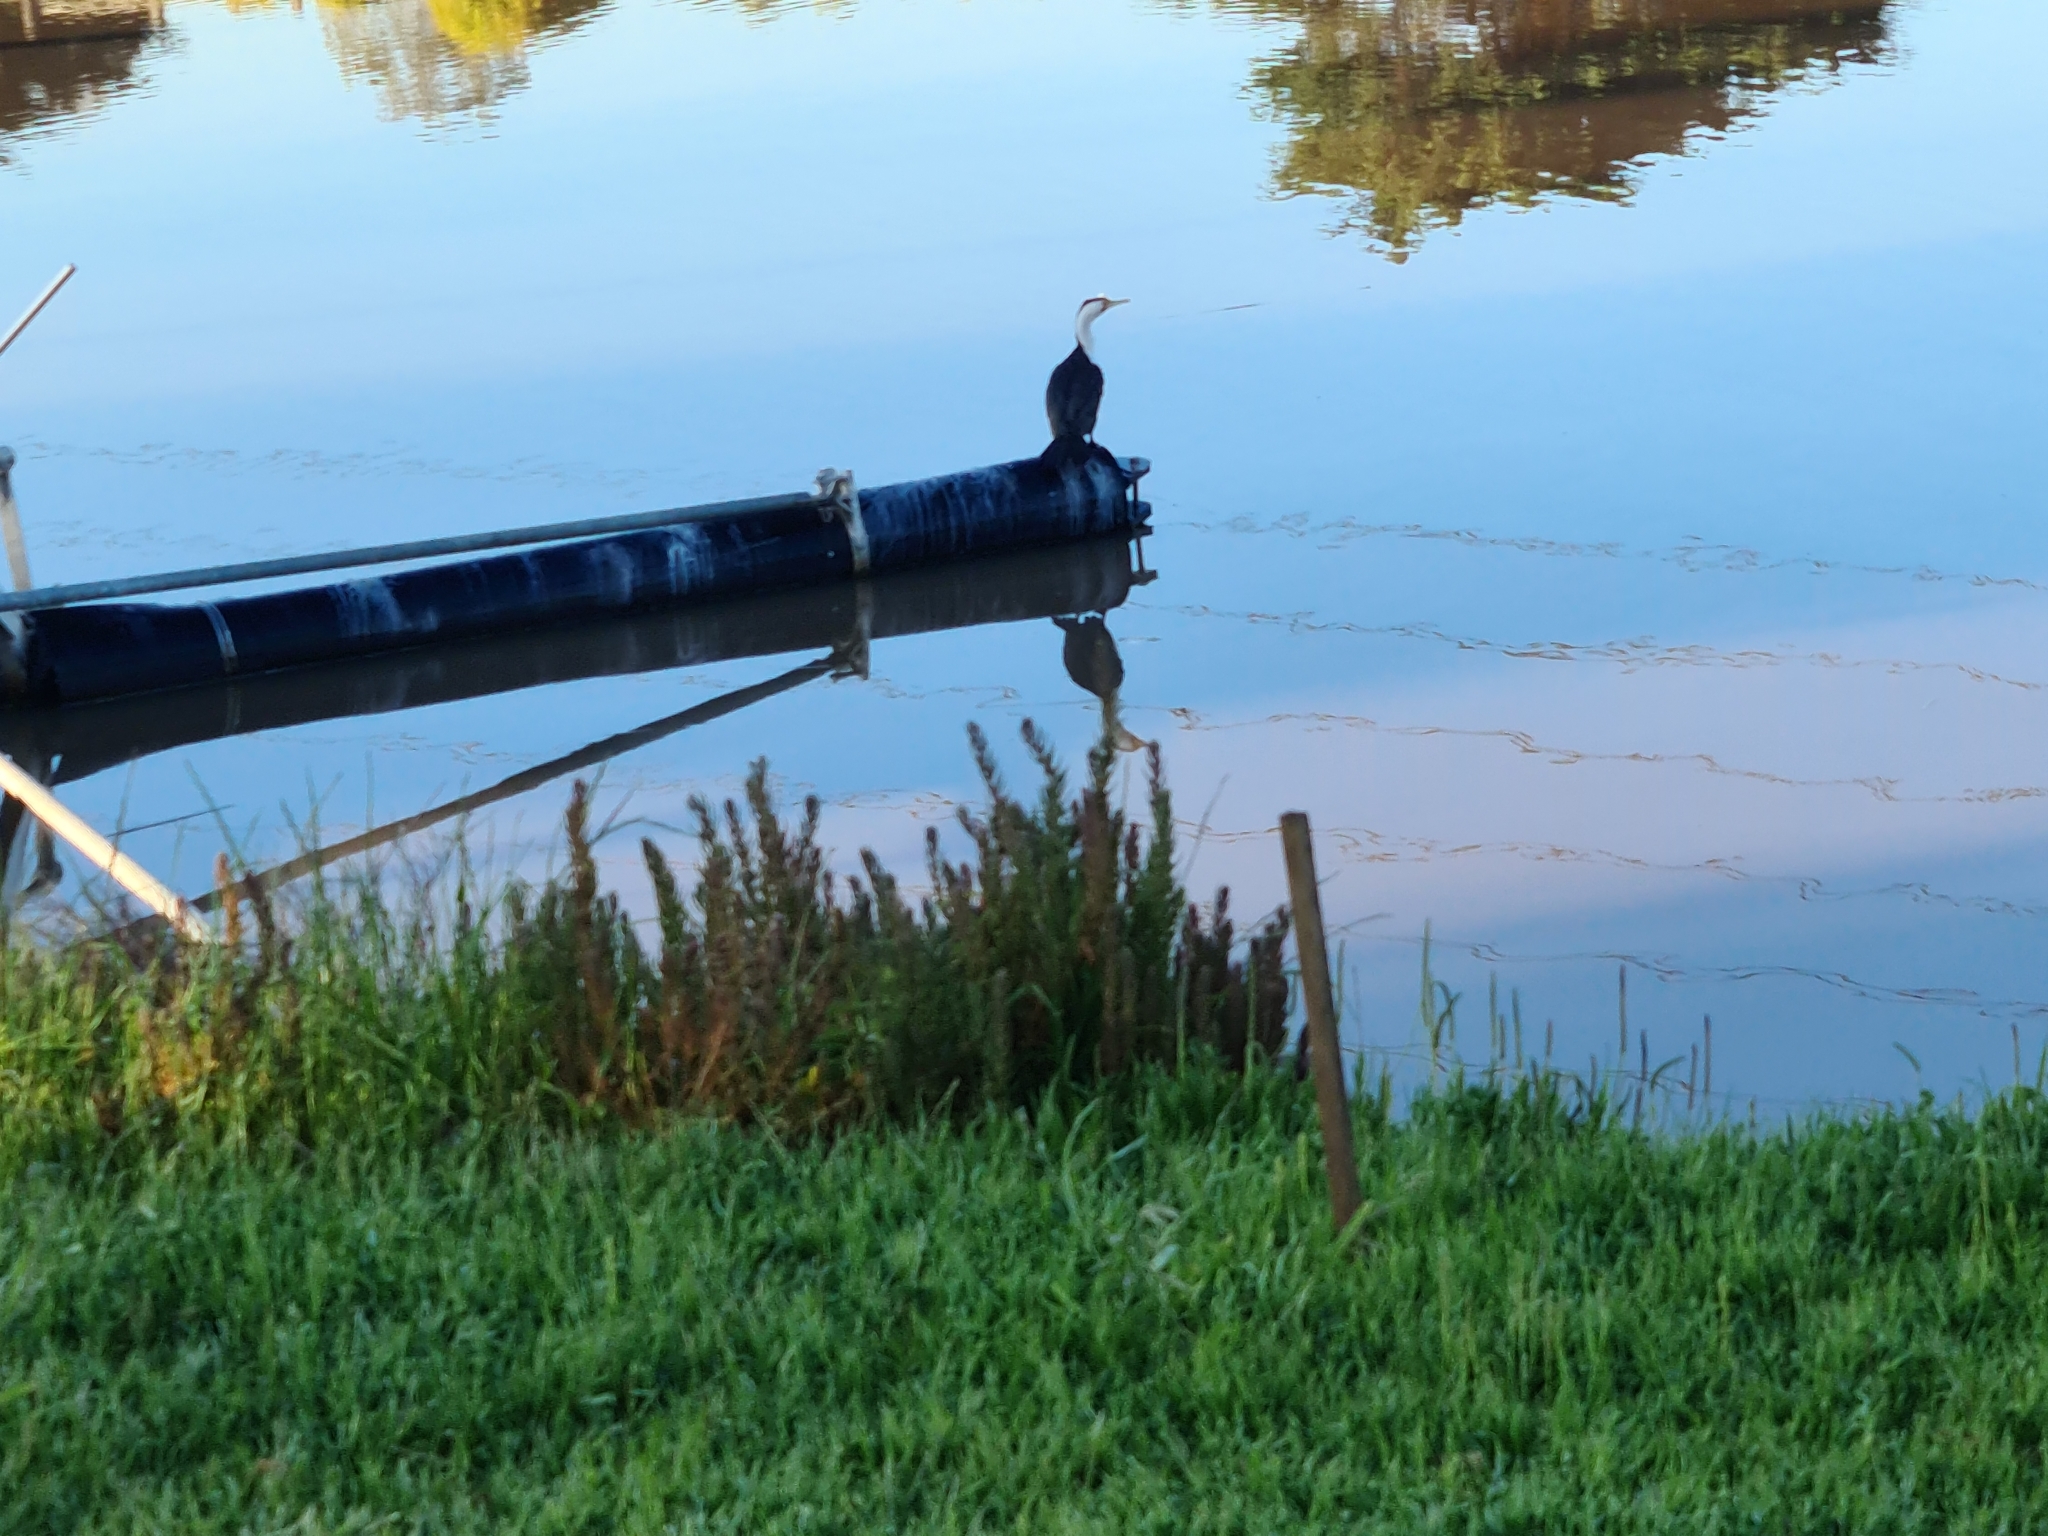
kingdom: Animalia
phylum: Chordata
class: Aves
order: Suliformes
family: Phalacrocoracidae
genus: Phalacrocorax
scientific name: Phalacrocorax varius
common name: Pied cormorant
